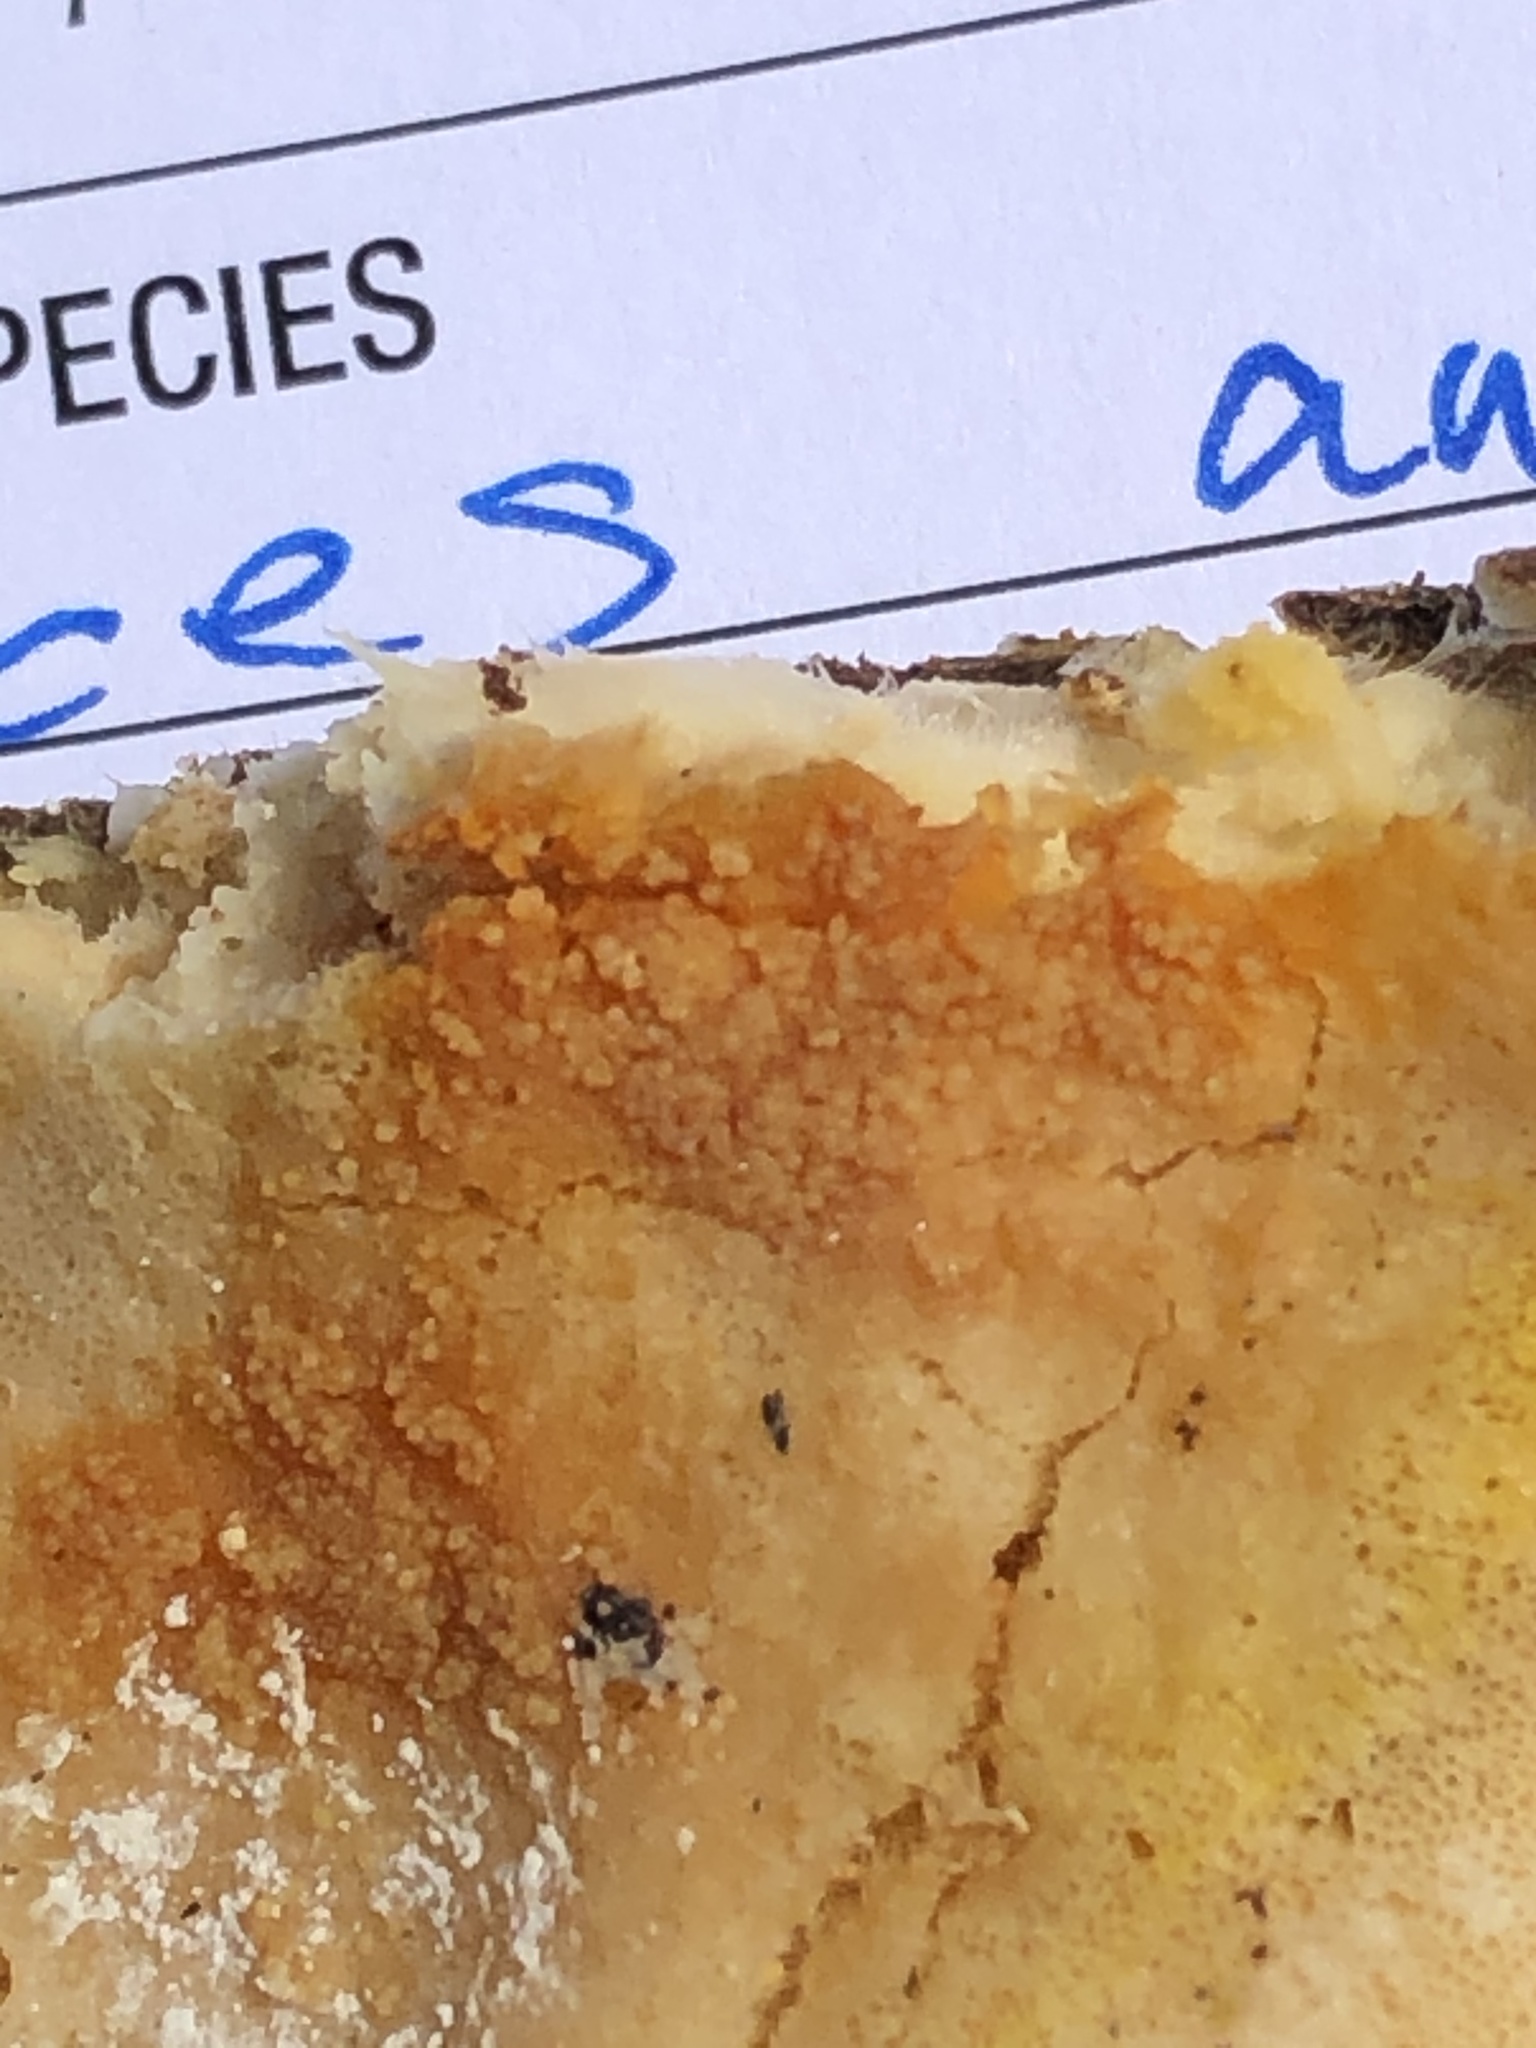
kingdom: Fungi
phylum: Ascomycota
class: Sordariomycetes
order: Hypocreales
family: Hypocreaceae
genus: Hypomyces
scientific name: Hypomyces aurantius
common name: Orange polypore mould
